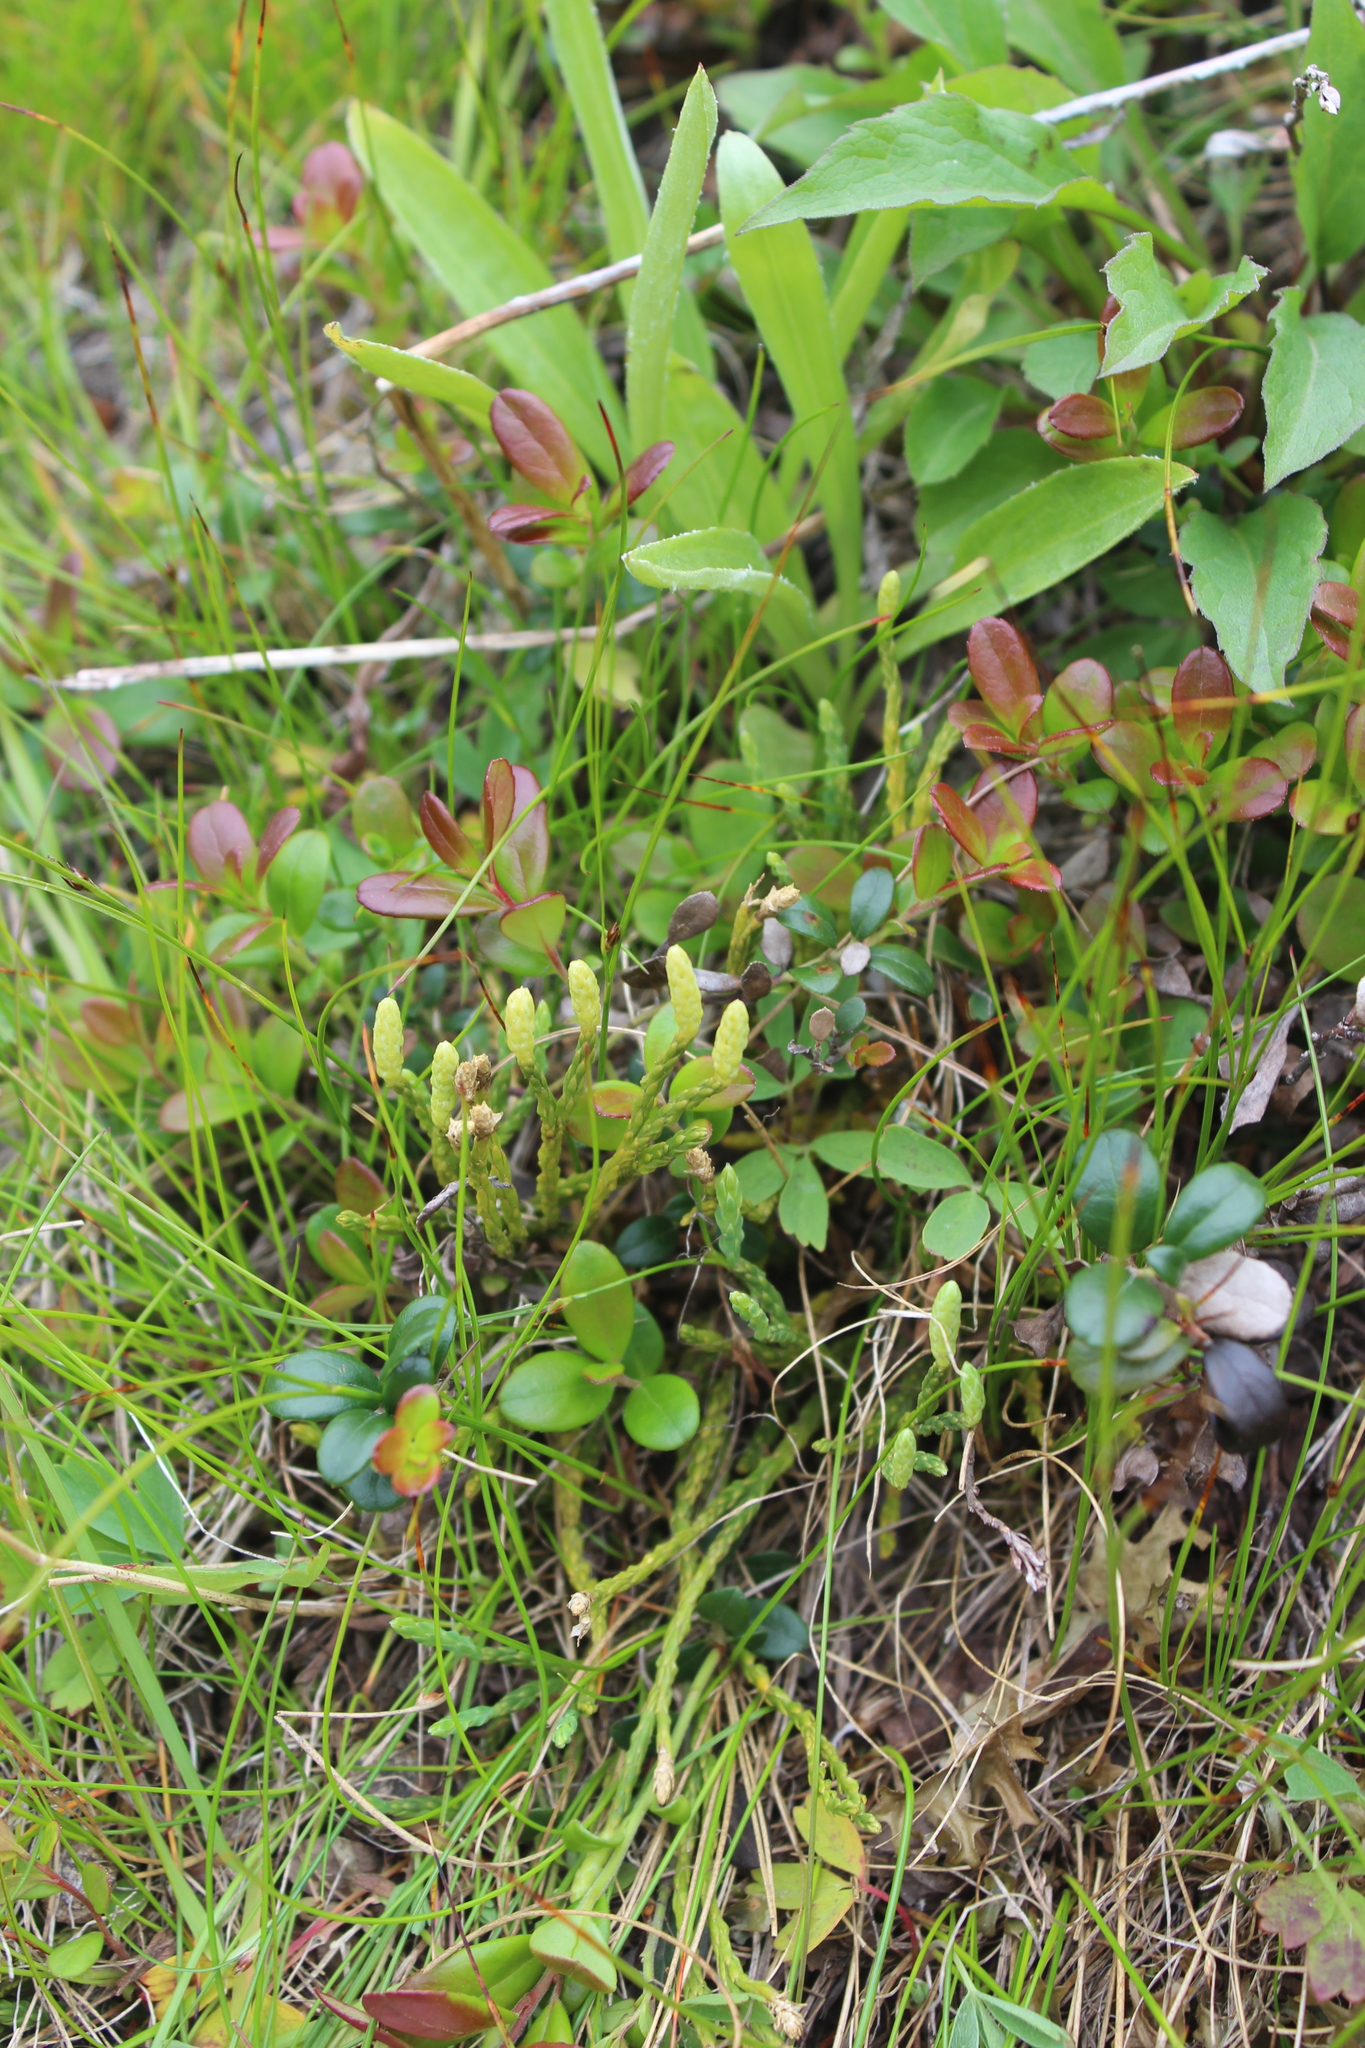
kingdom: Plantae
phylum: Tracheophyta
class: Lycopodiopsida
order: Lycopodiales
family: Lycopodiaceae
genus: Diphasiastrum
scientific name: Diphasiastrum alpinum
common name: Alpine clubmoss
